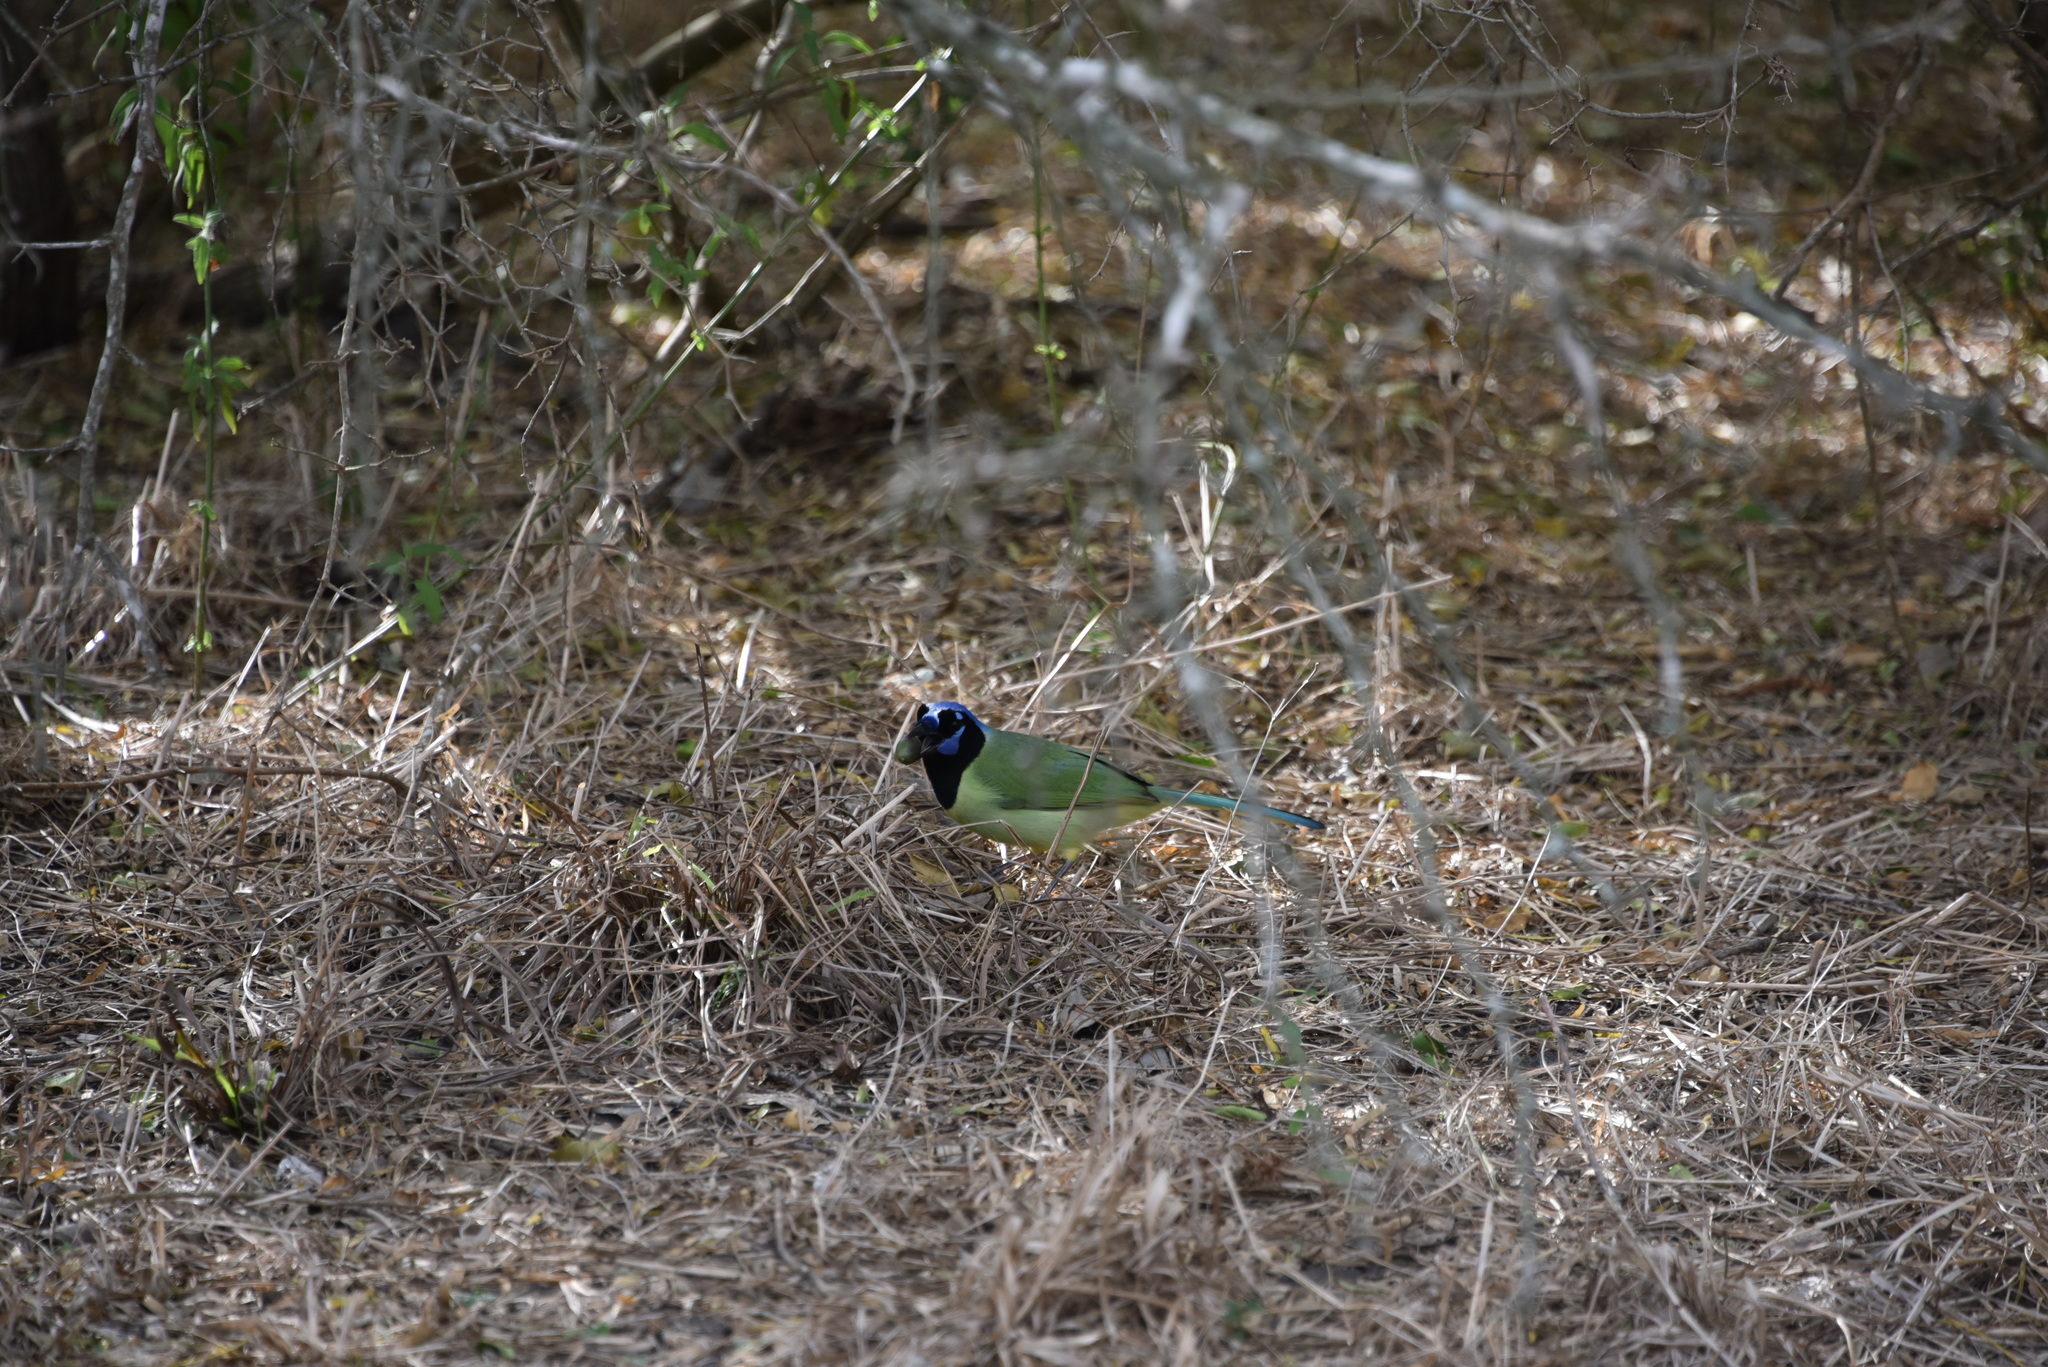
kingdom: Animalia
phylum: Chordata
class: Aves
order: Passeriformes
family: Corvidae
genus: Cyanocorax
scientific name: Cyanocorax yncas
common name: Green jay
